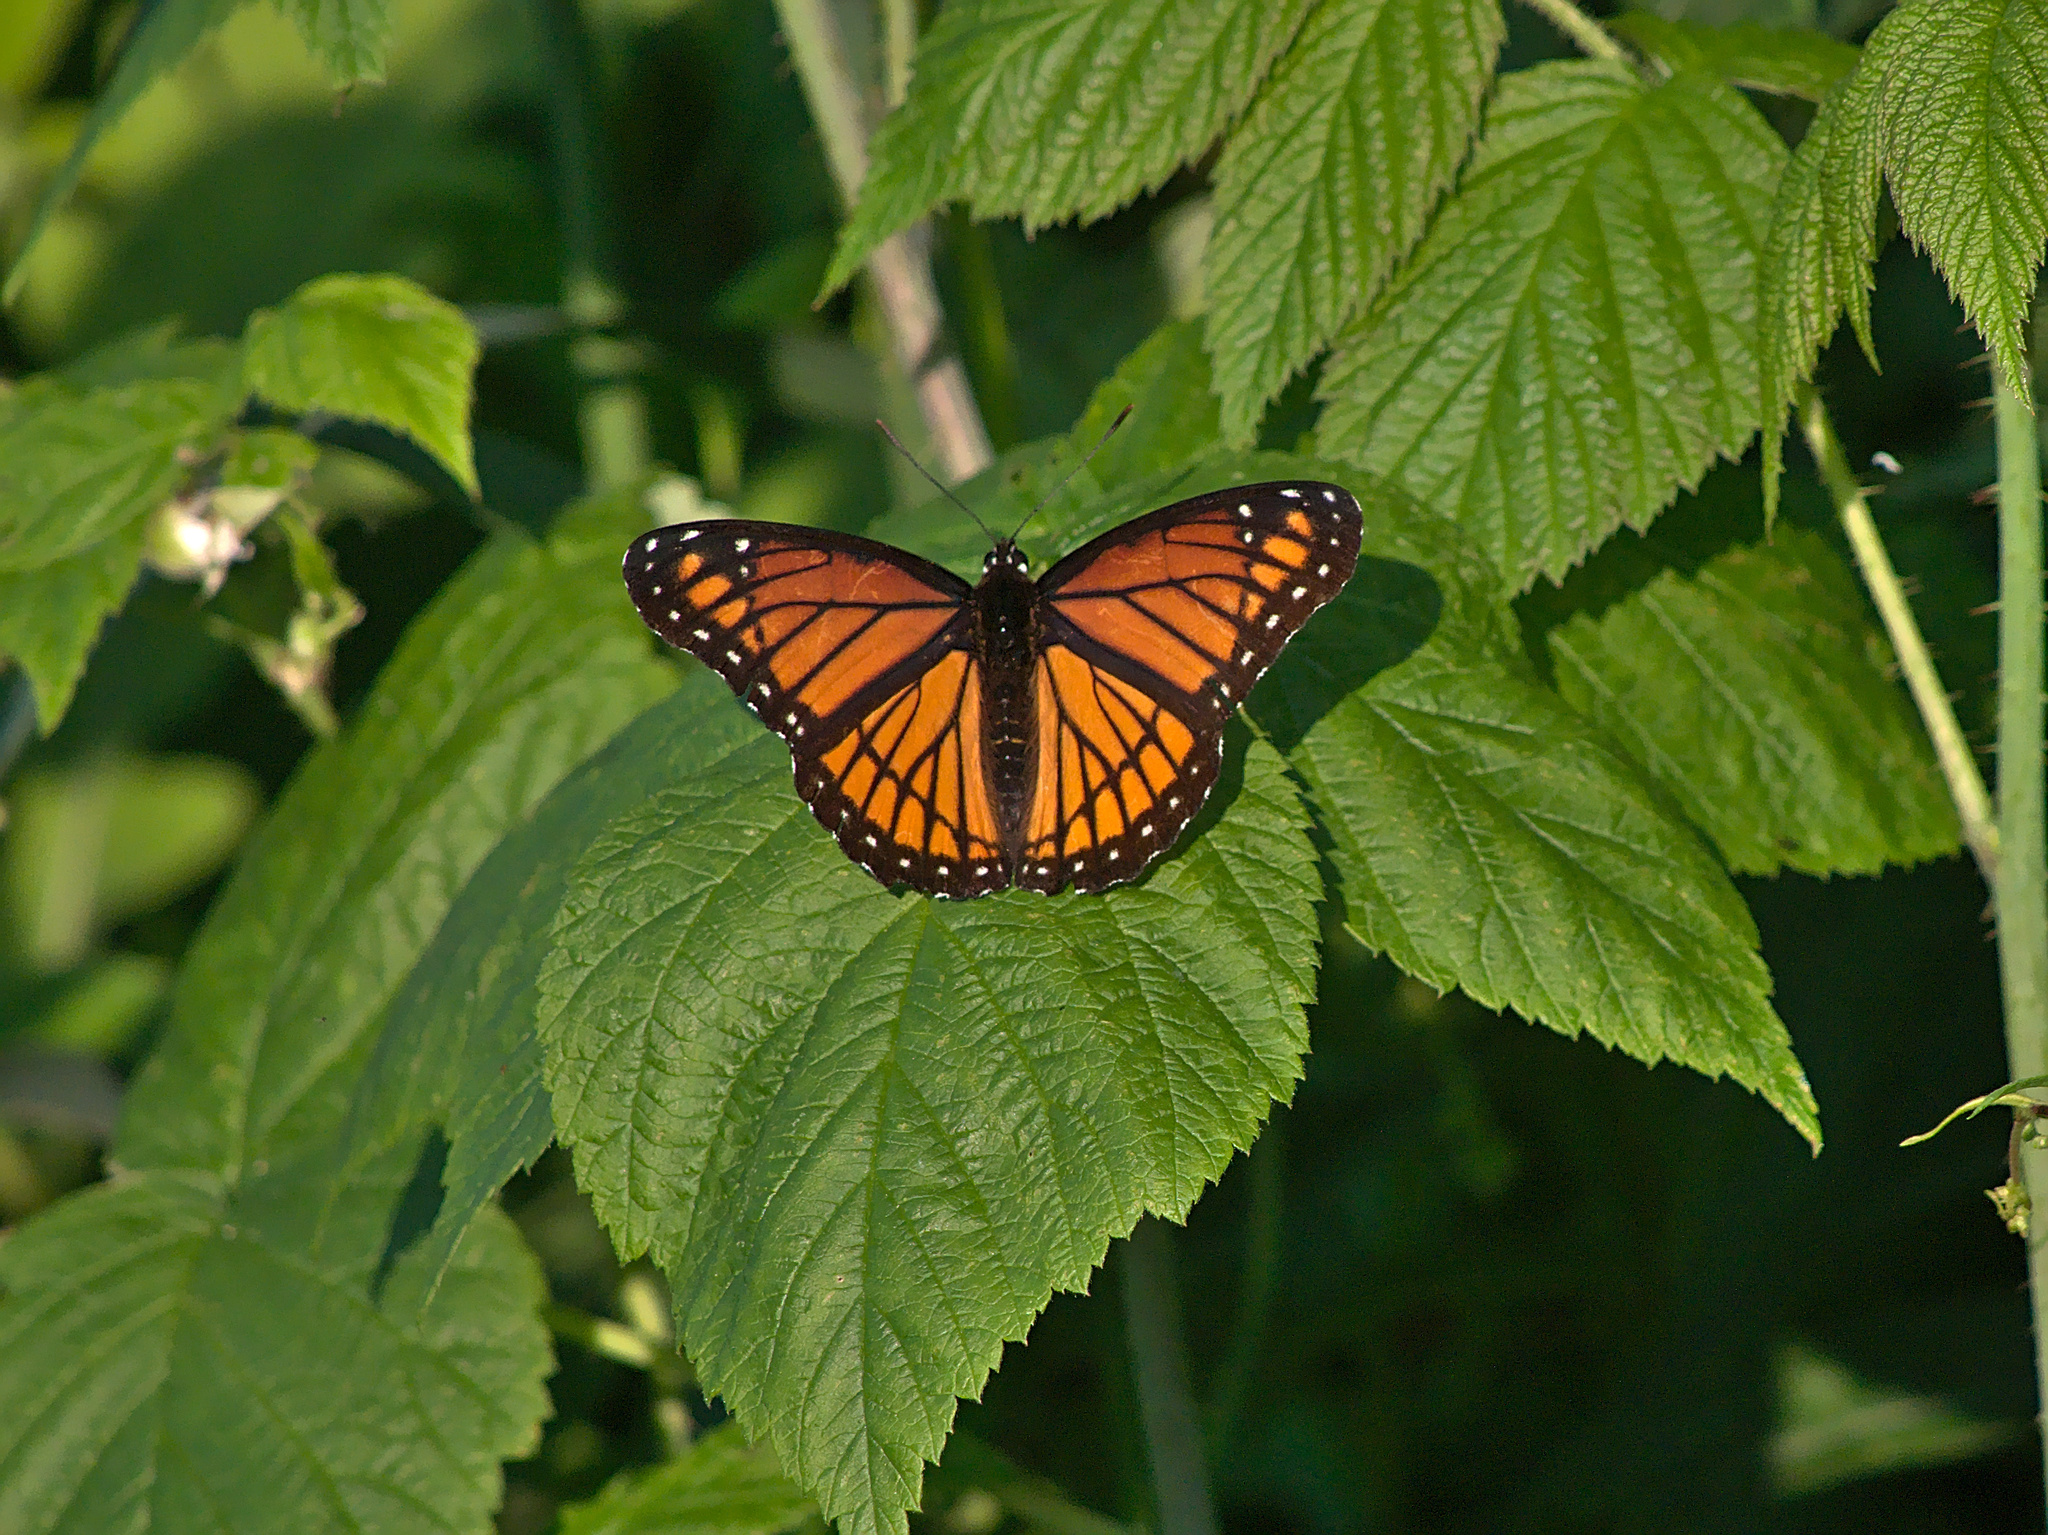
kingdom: Animalia
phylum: Arthropoda
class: Insecta
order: Lepidoptera
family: Nymphalidae
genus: Limenitis
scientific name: Limenitis archippus
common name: Viceroy
